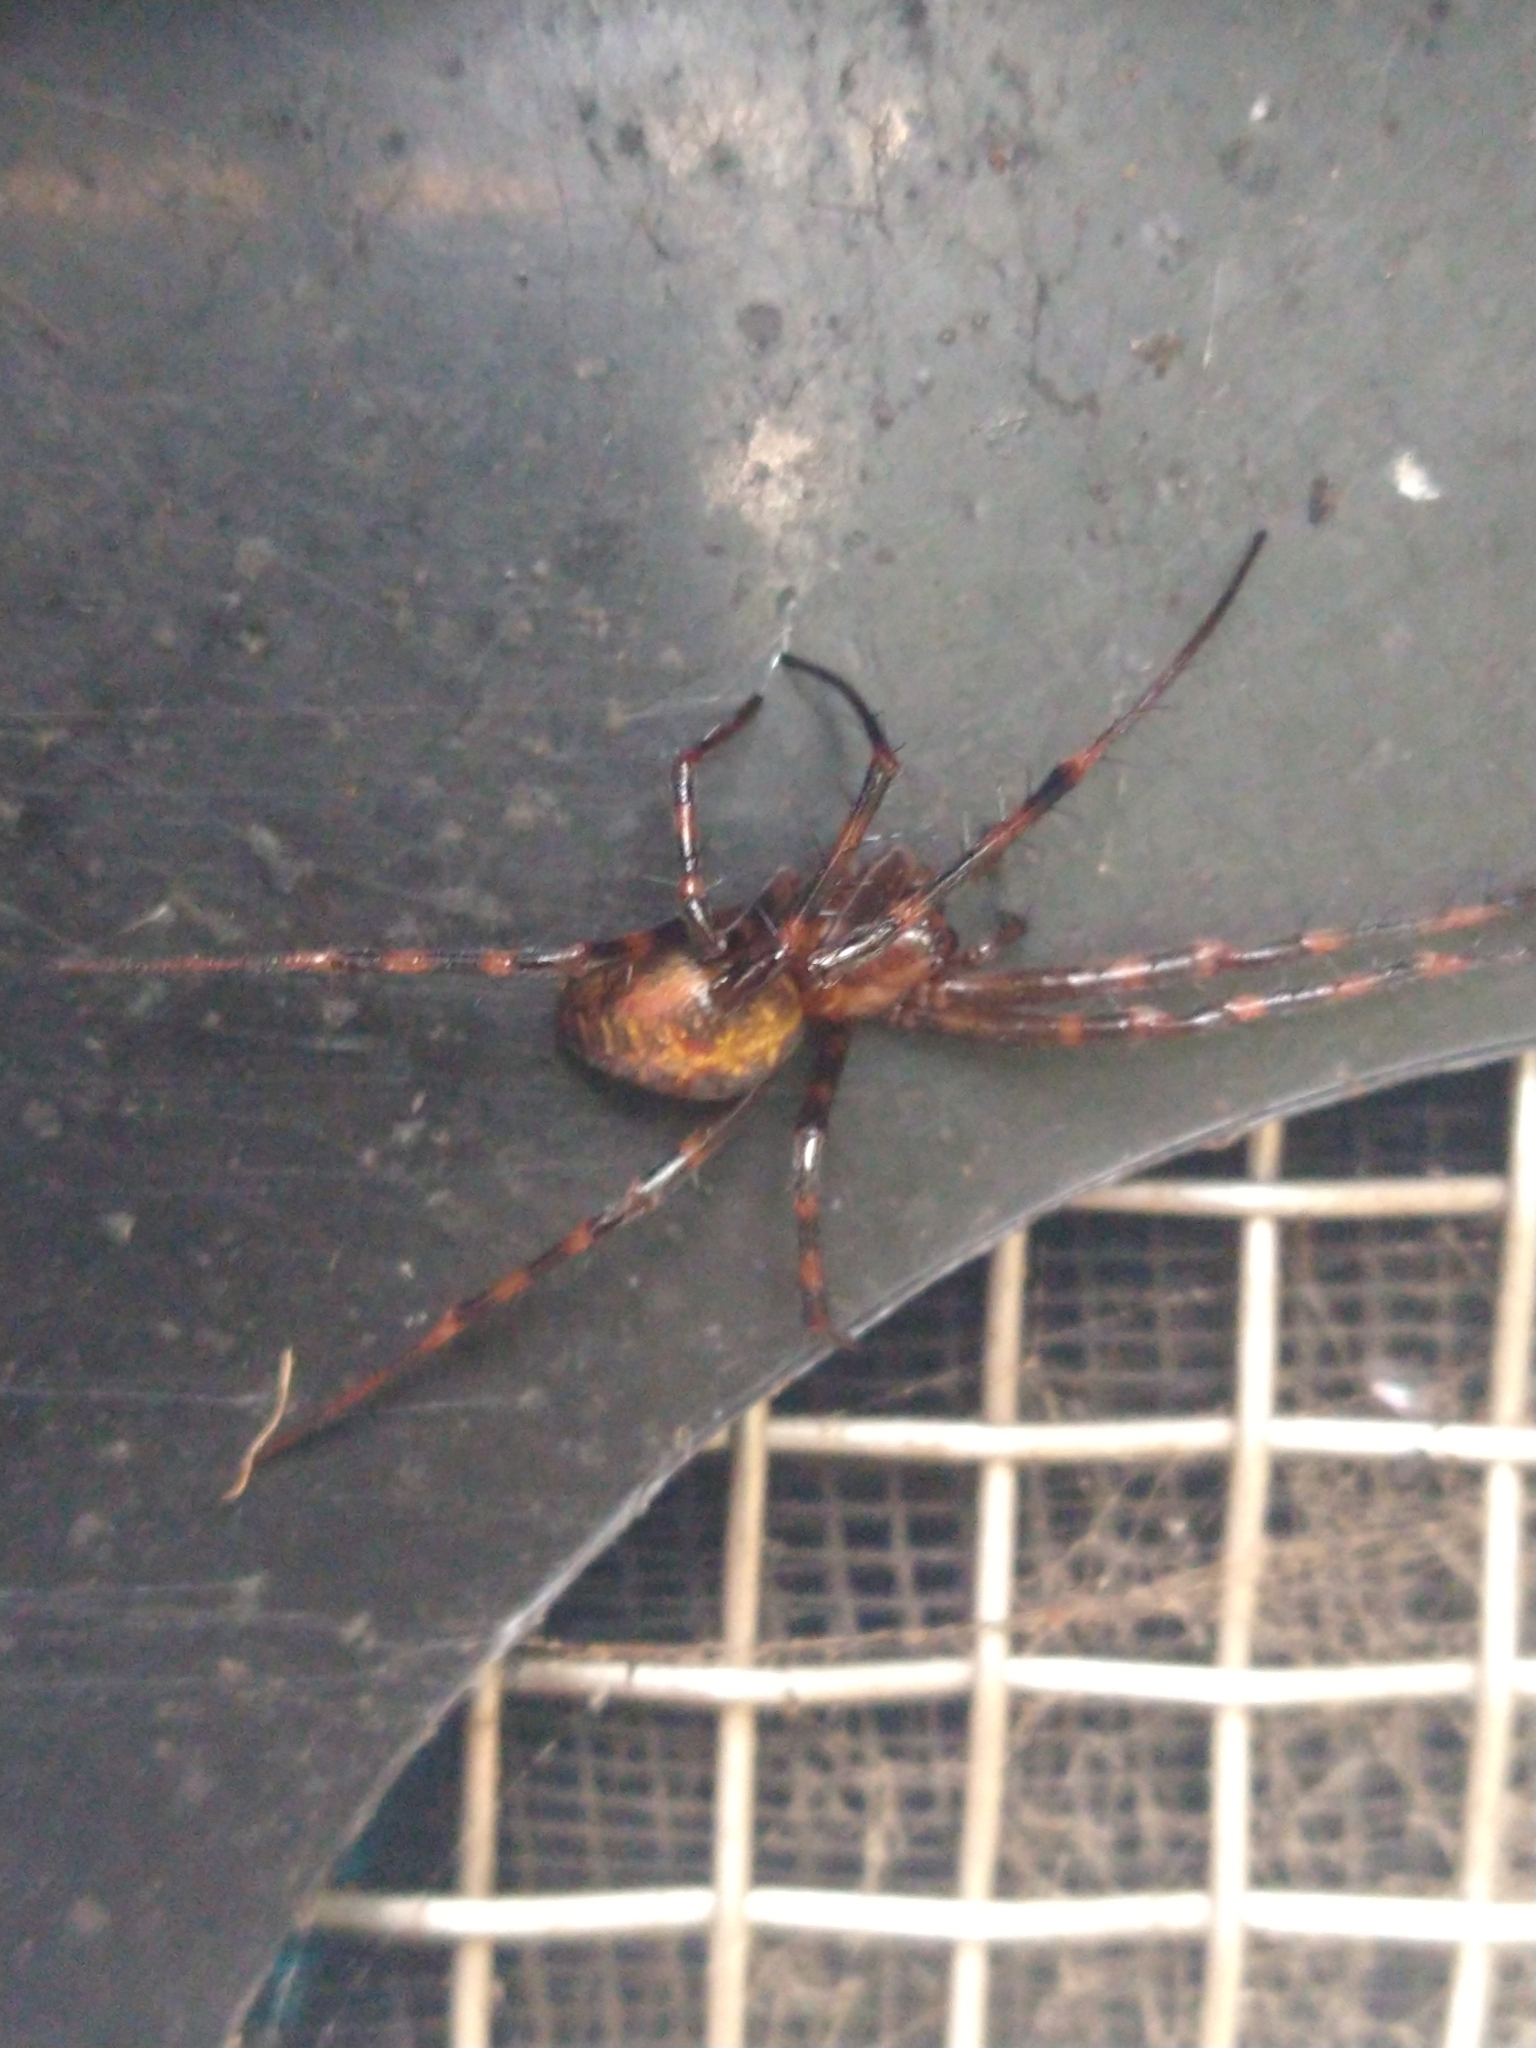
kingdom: Animalia
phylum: Arthropoda
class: Arachnida
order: Araneae
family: Tetragnathidae
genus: Meta
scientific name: Meta menardi
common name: Cave spider
